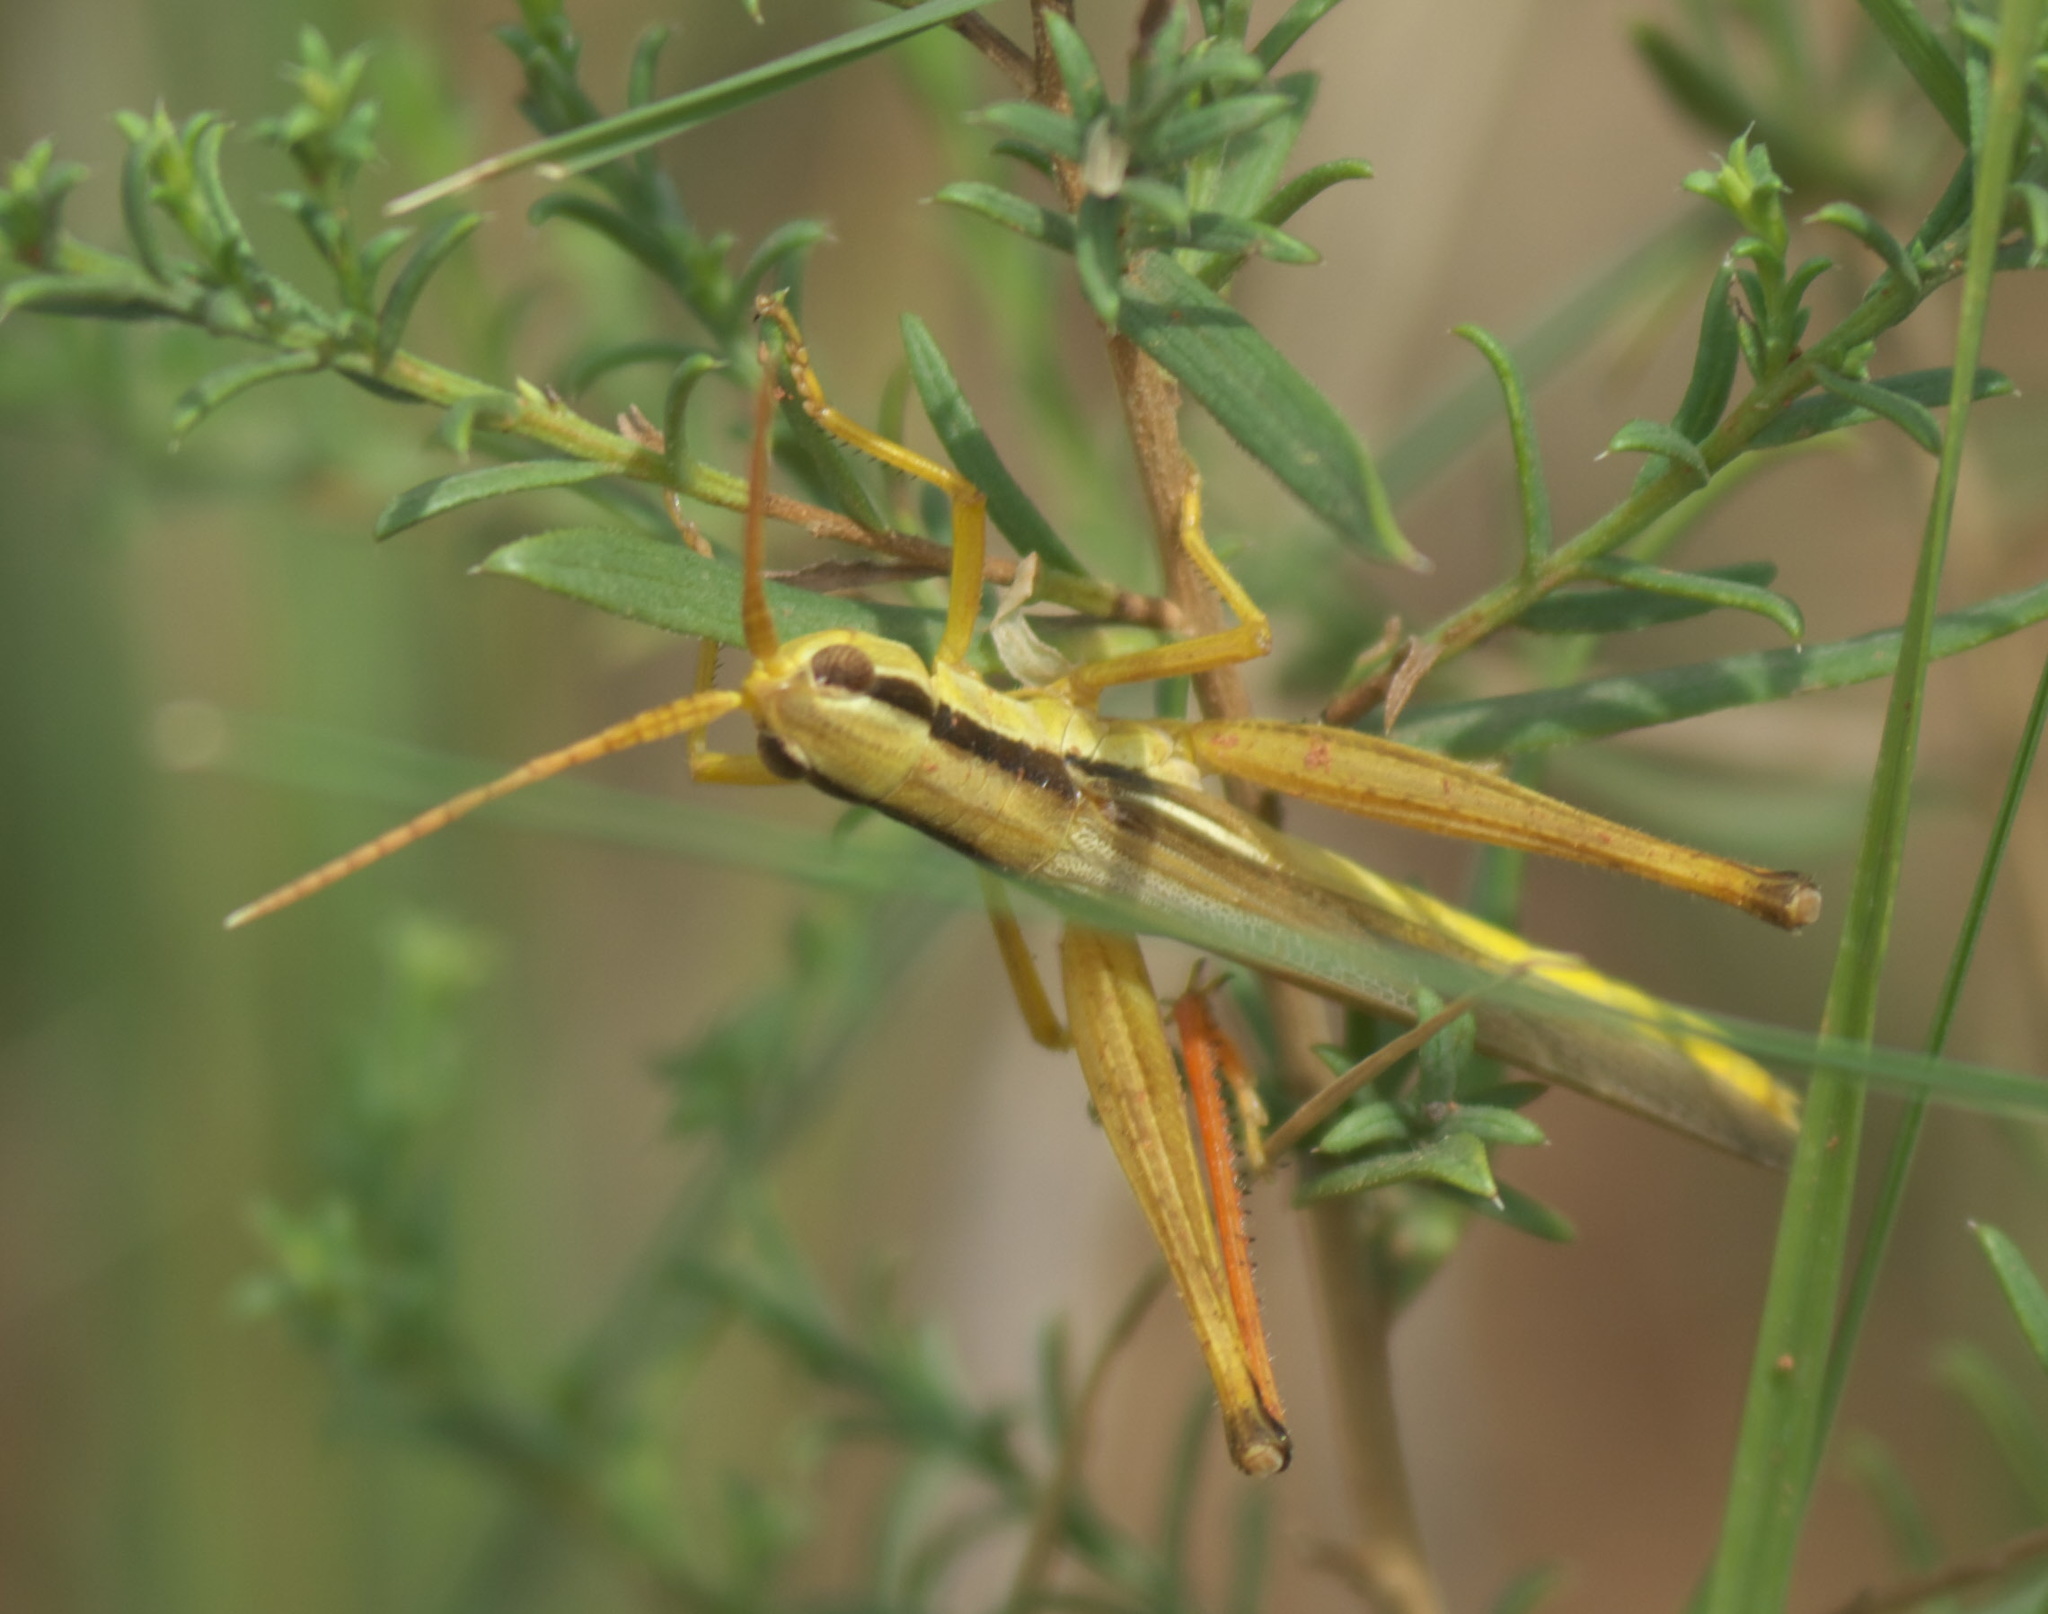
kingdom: Animalia
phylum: Arthropoda
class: Insecta
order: Orthoptera
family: Acrididae
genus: Mermiria
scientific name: Mermiria bivittata
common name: Two-striped mermiria grasshopper
